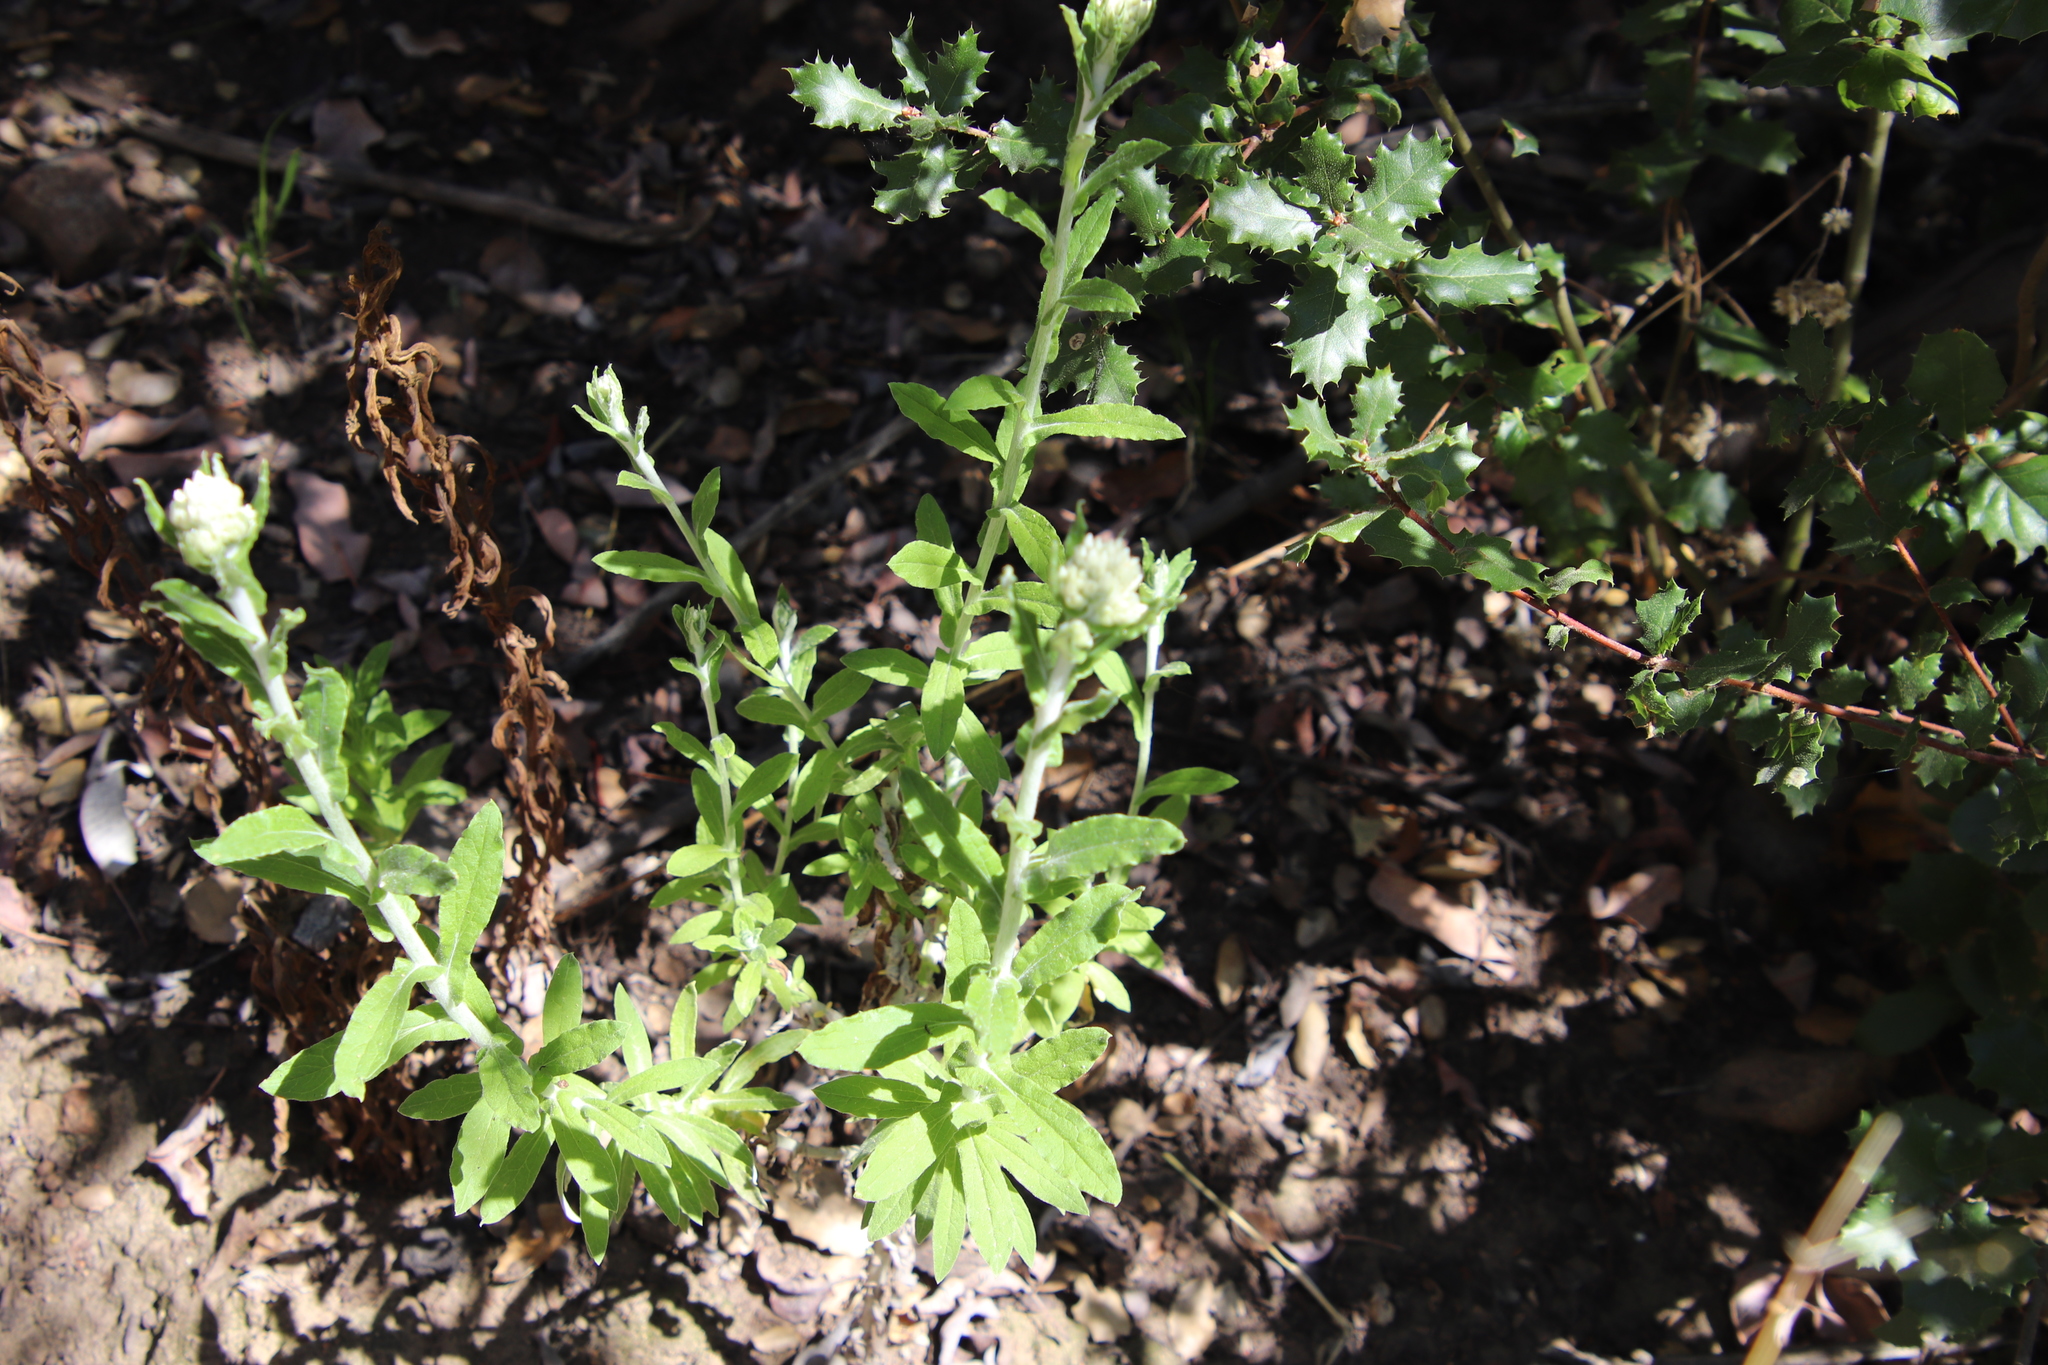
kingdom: Plantae
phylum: Tracheophyta
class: Magnoliopsida
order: Asterales
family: Asteraceae
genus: Pseudognaphalium
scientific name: Pseudognaphalium biolettii
